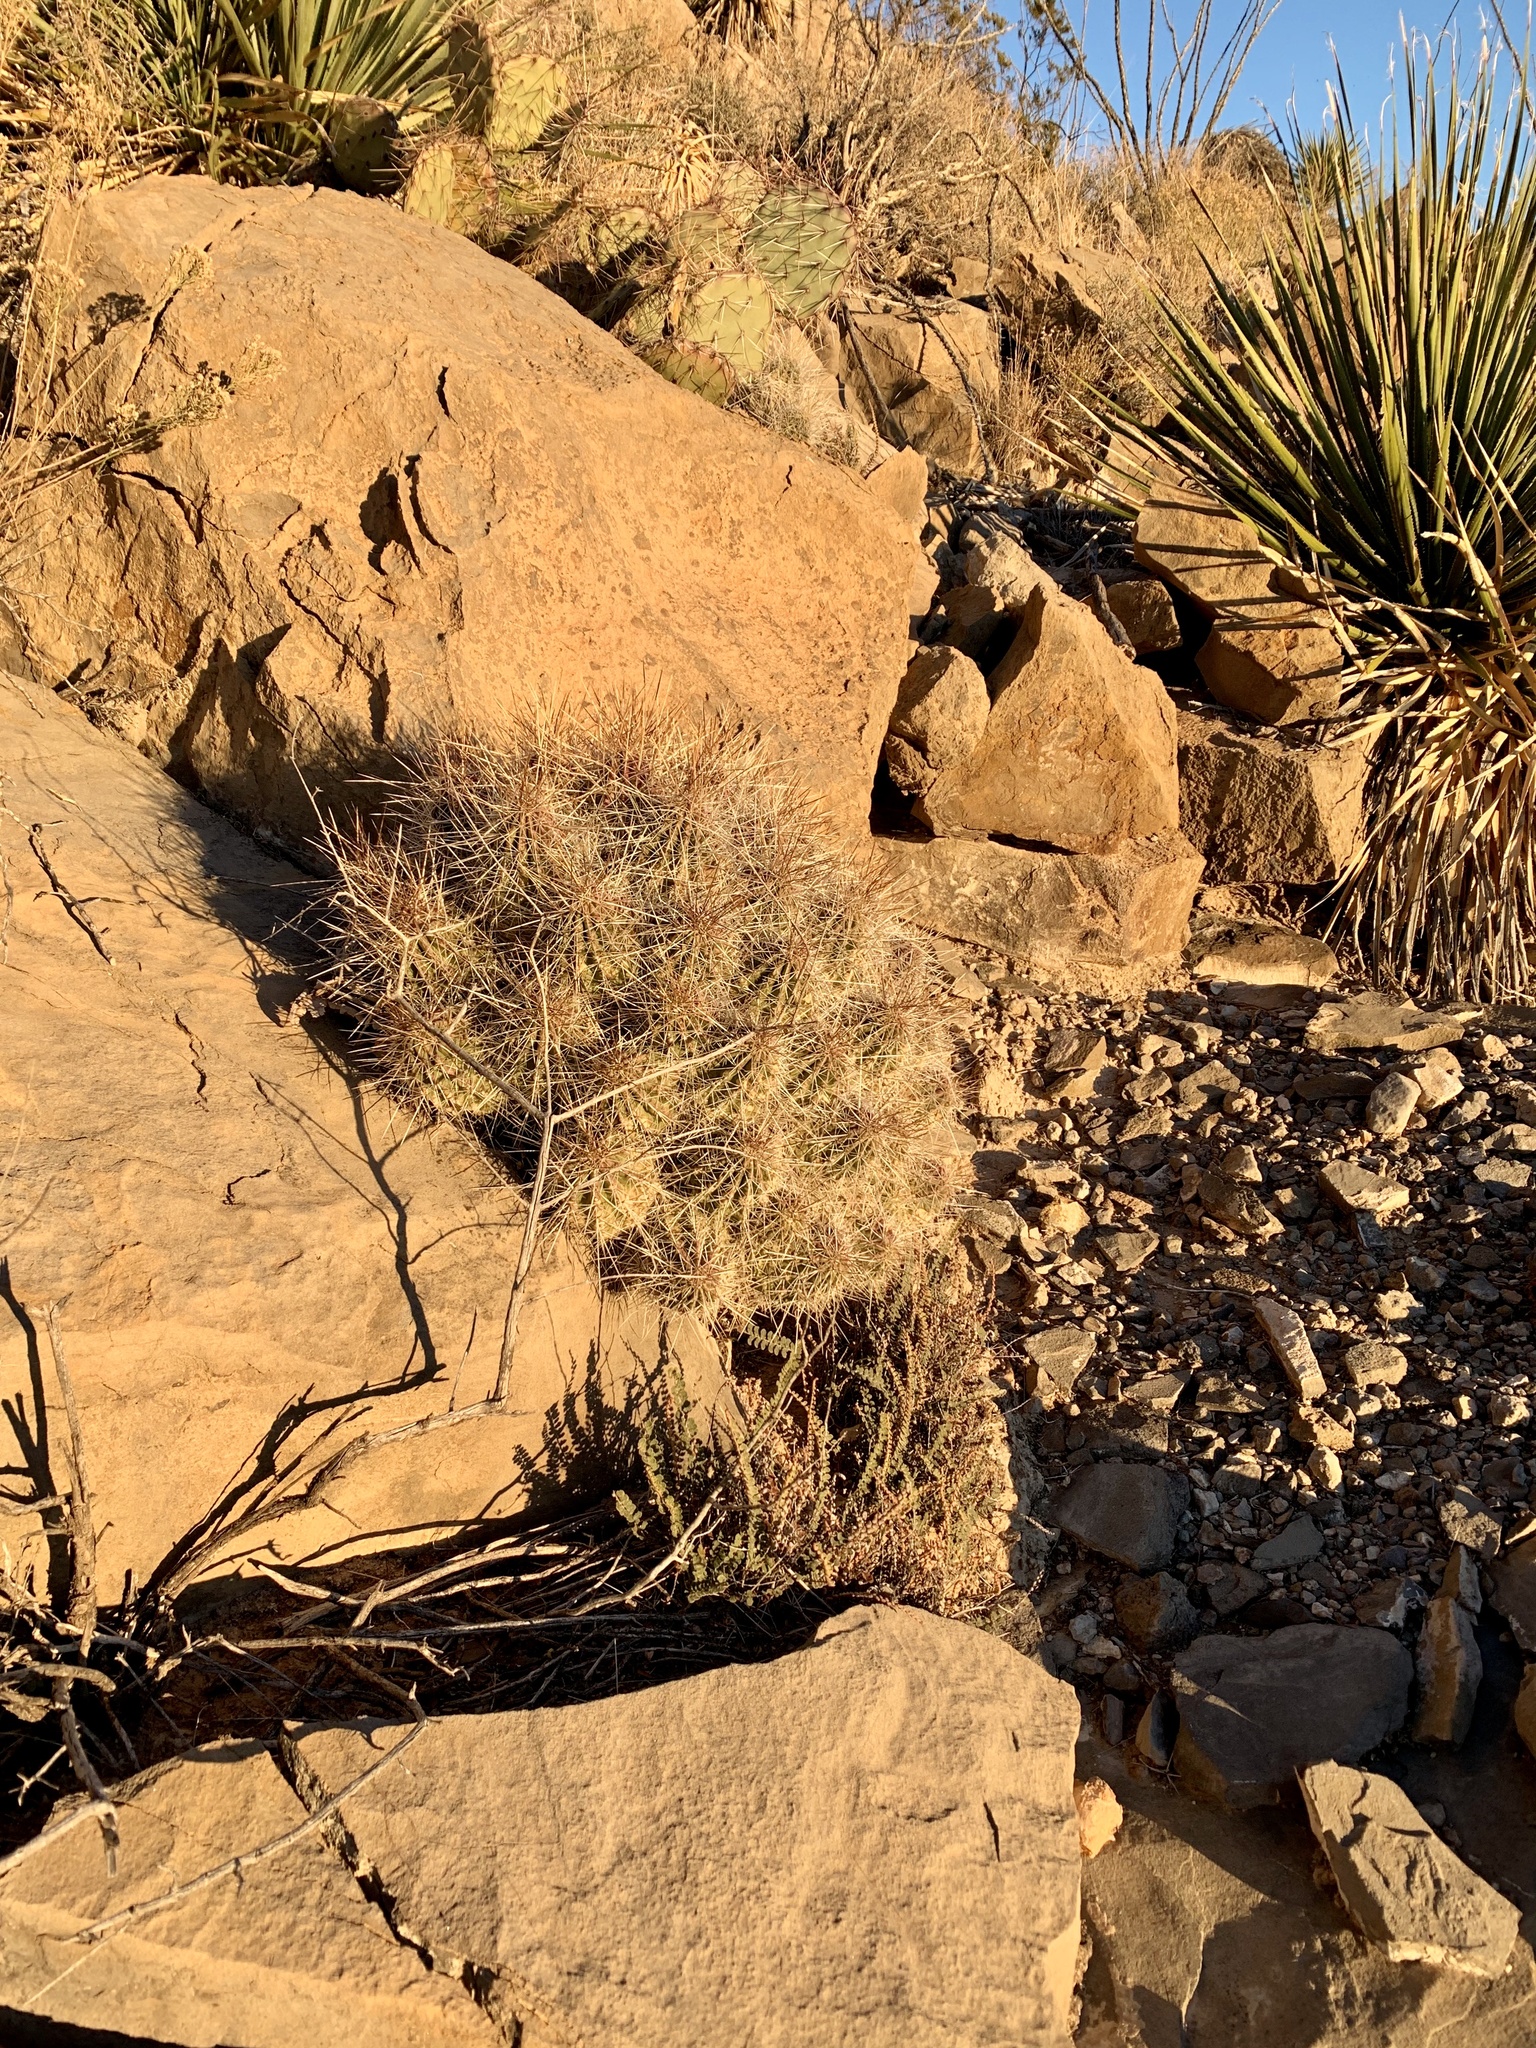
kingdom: Plantae
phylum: Tracheophyta
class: Magnoliopsida
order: Caryophyllales
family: Cactaceae
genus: Echinocereus
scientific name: Echinocereus stramineus
